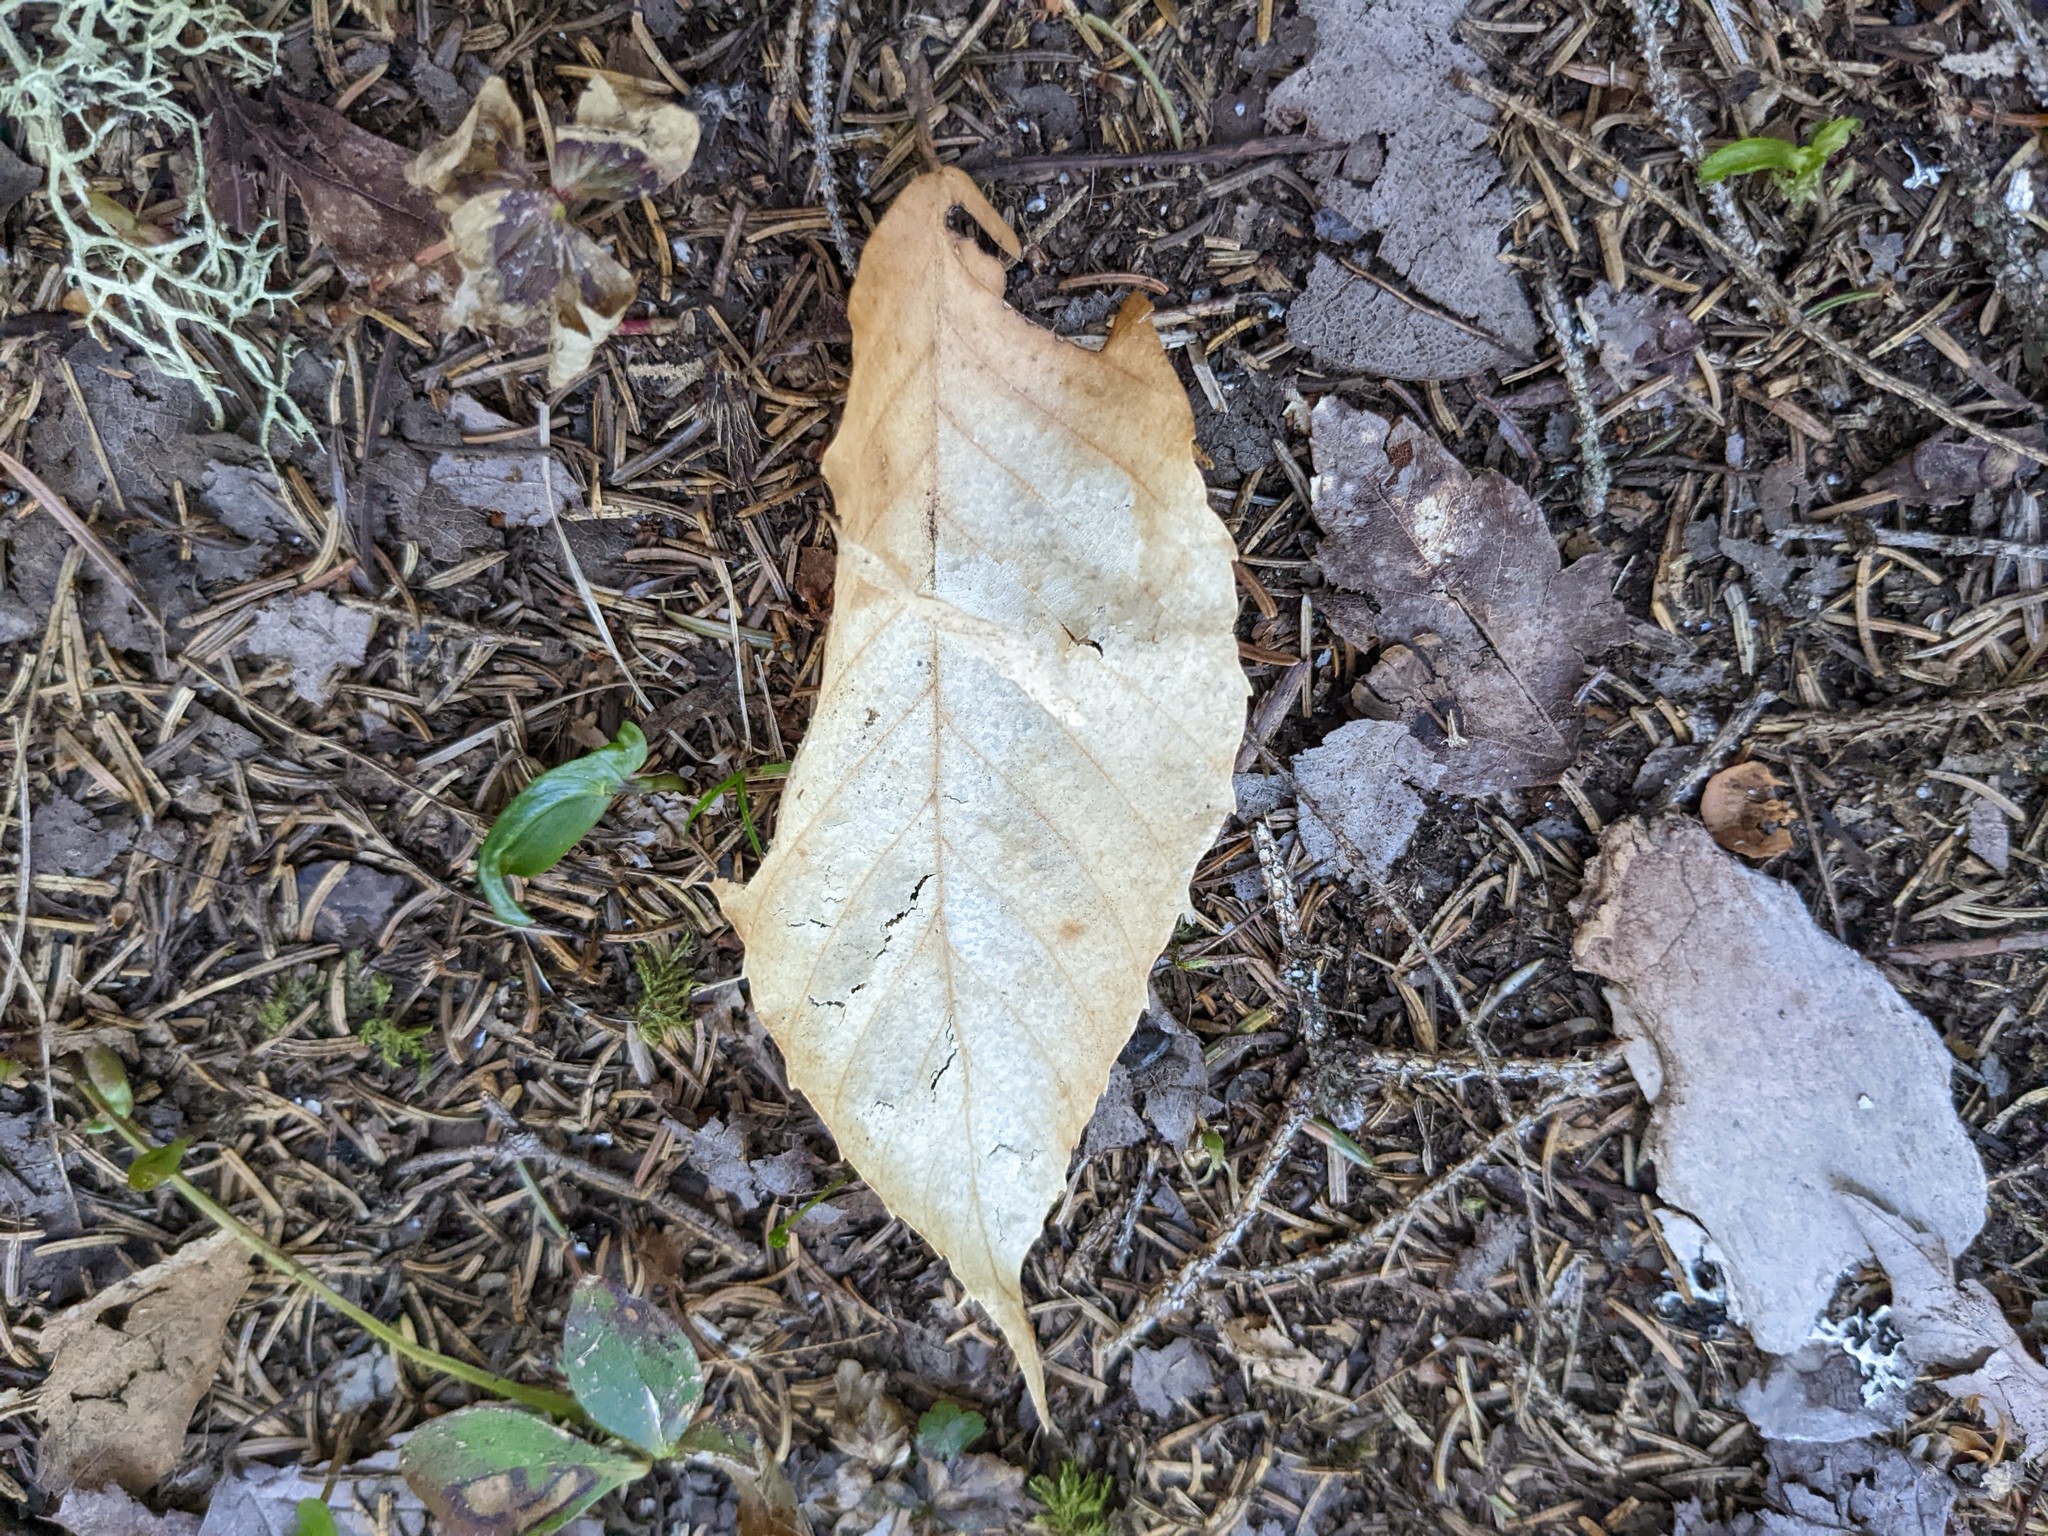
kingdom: Plantae
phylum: Tracheophyta
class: Magnoliopsida
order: Fagales
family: Fagaceae
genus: Fagus
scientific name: Fagus grandifolia
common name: American beech
